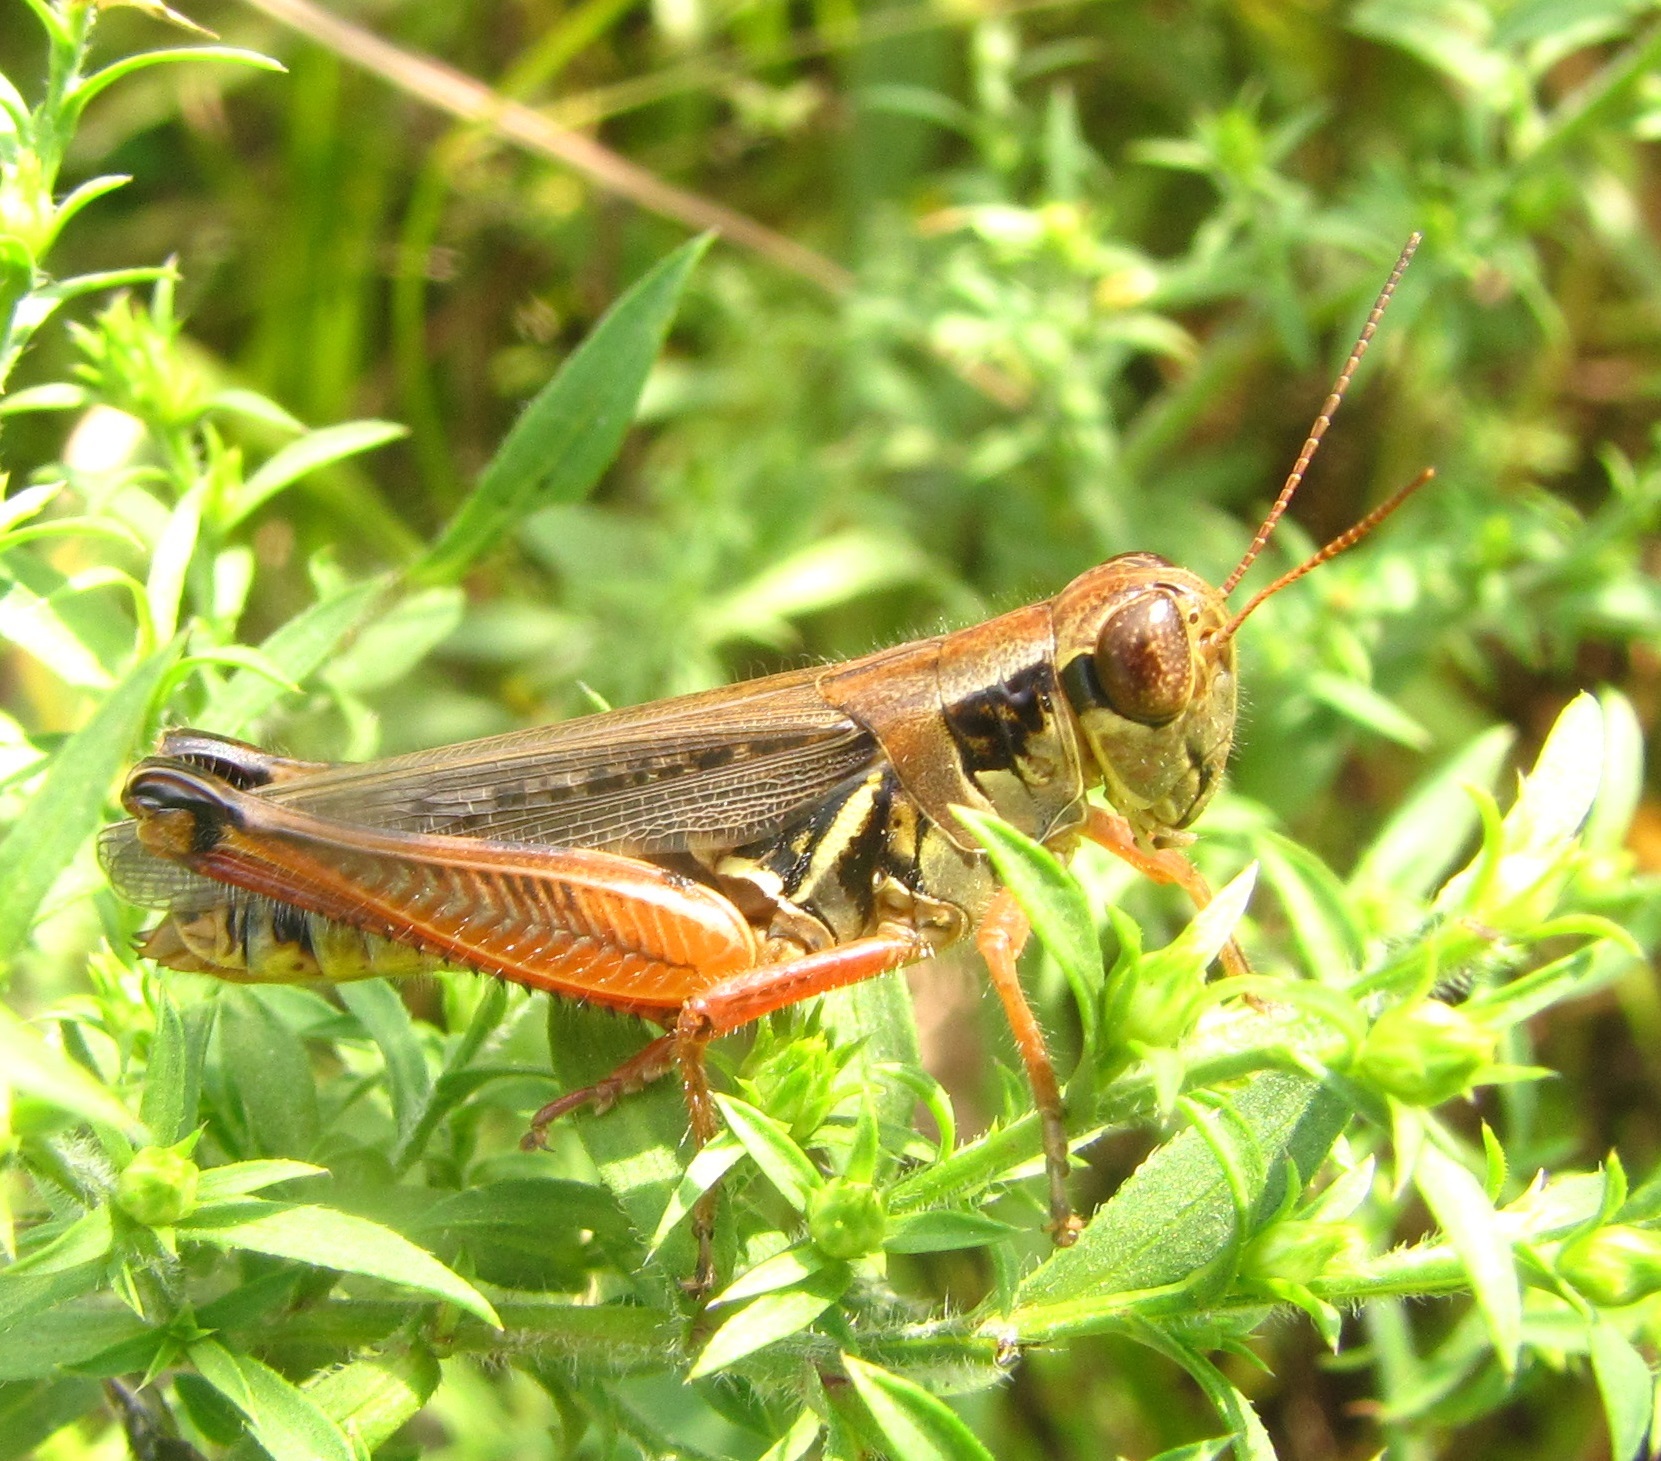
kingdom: Animalia
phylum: Arthropoda
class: Insecta
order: Orthoptera
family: Acrididae
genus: Melanoplus
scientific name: Melanoplus femurrubrum
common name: Red-legged grasshopper
